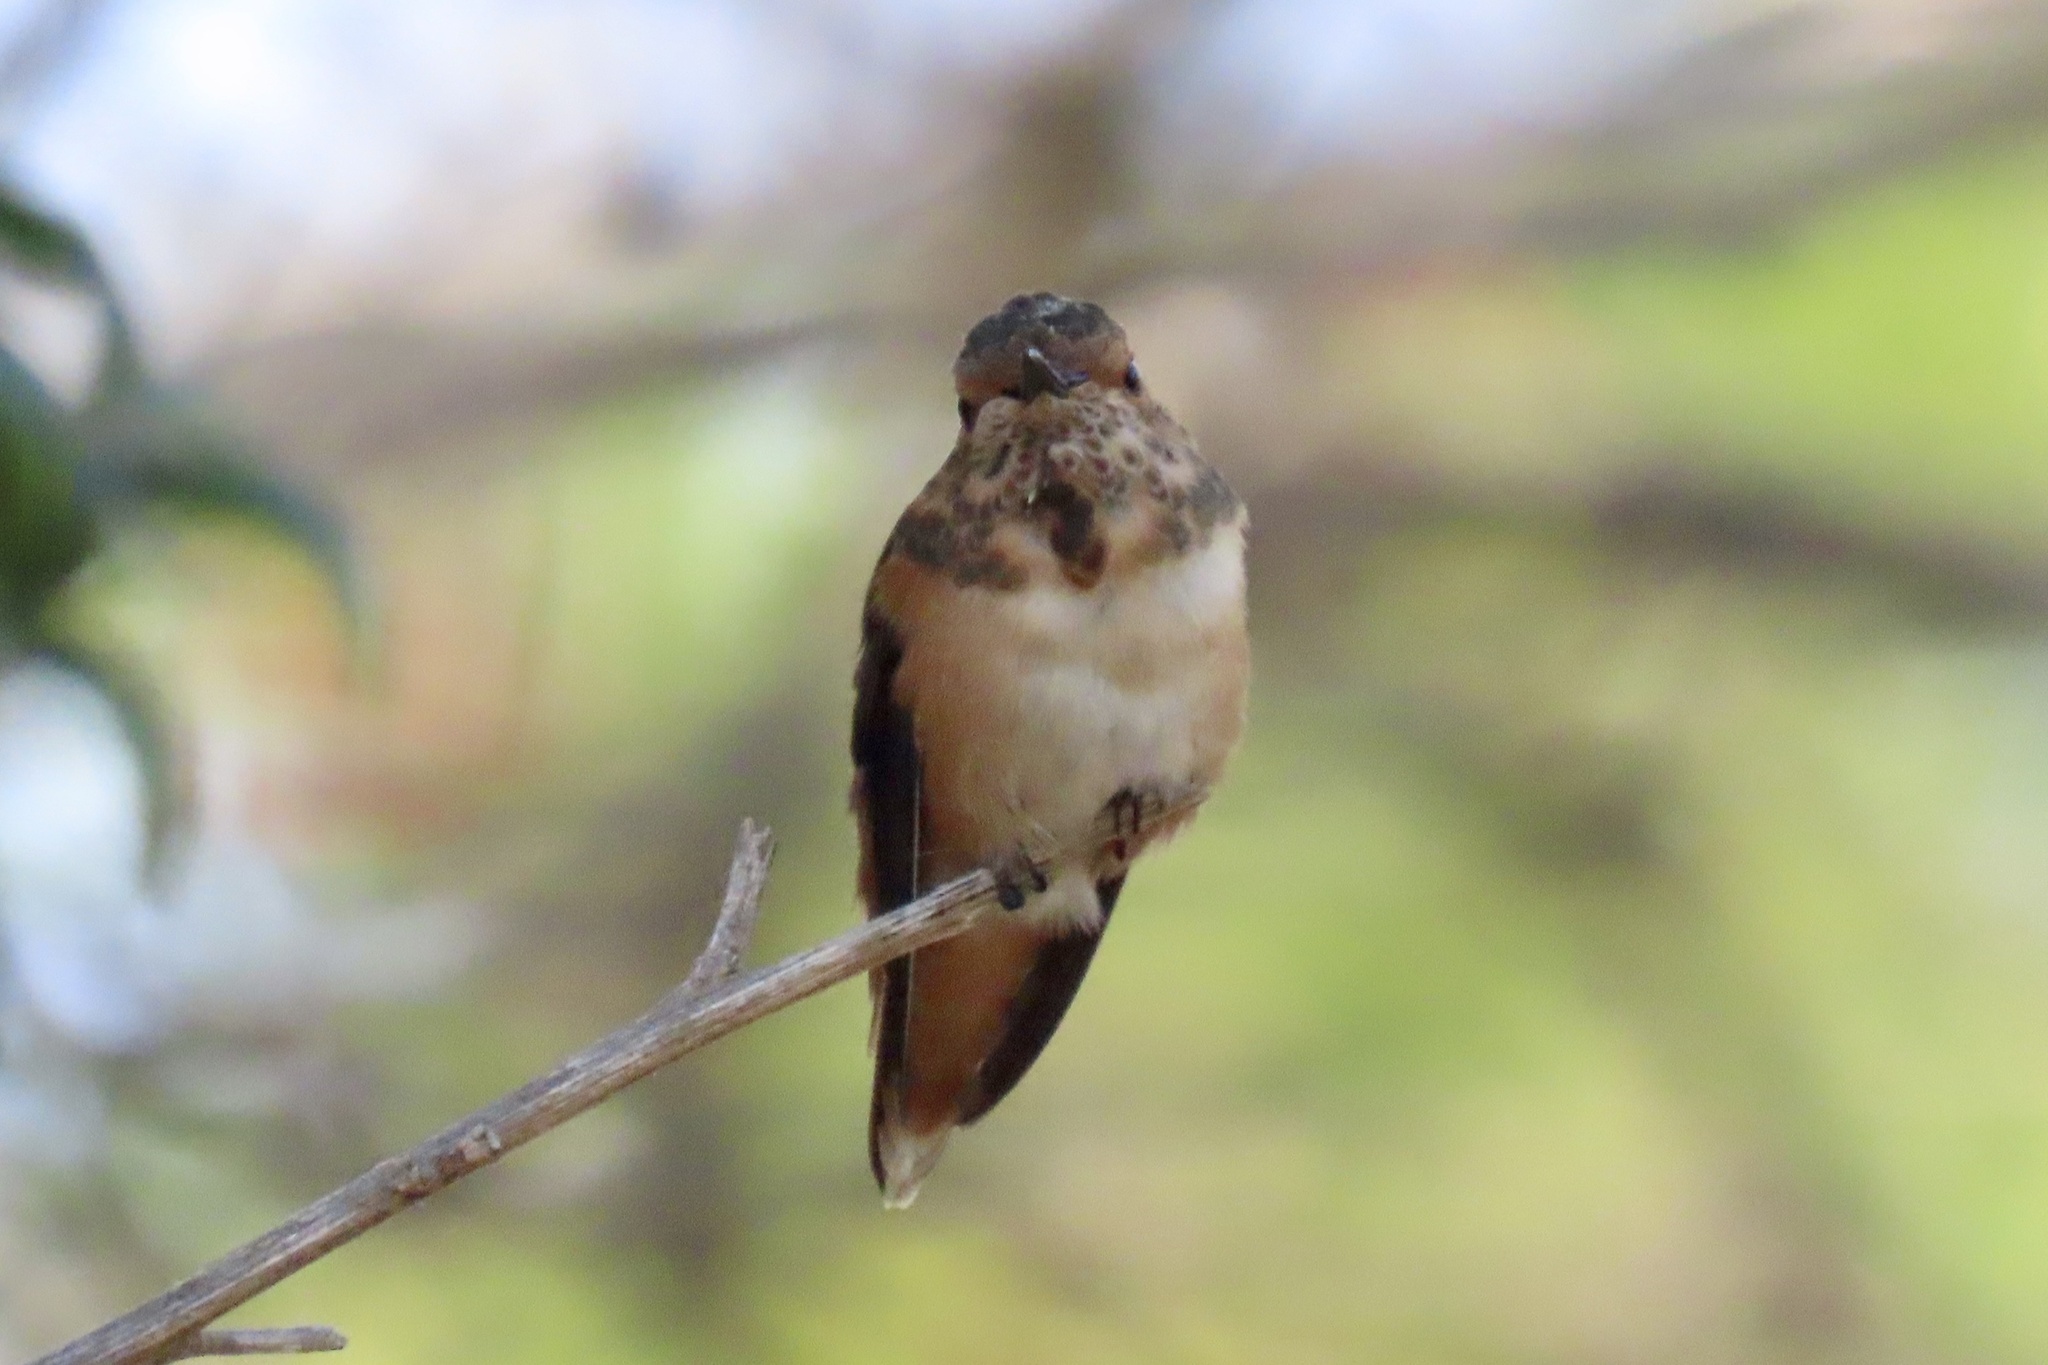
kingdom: Animalia
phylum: Chordata
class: Aves
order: Apodiformes
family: Trochilidae
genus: Selasphorus
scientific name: Selasphorus sasin
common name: Allen's hummingbird
